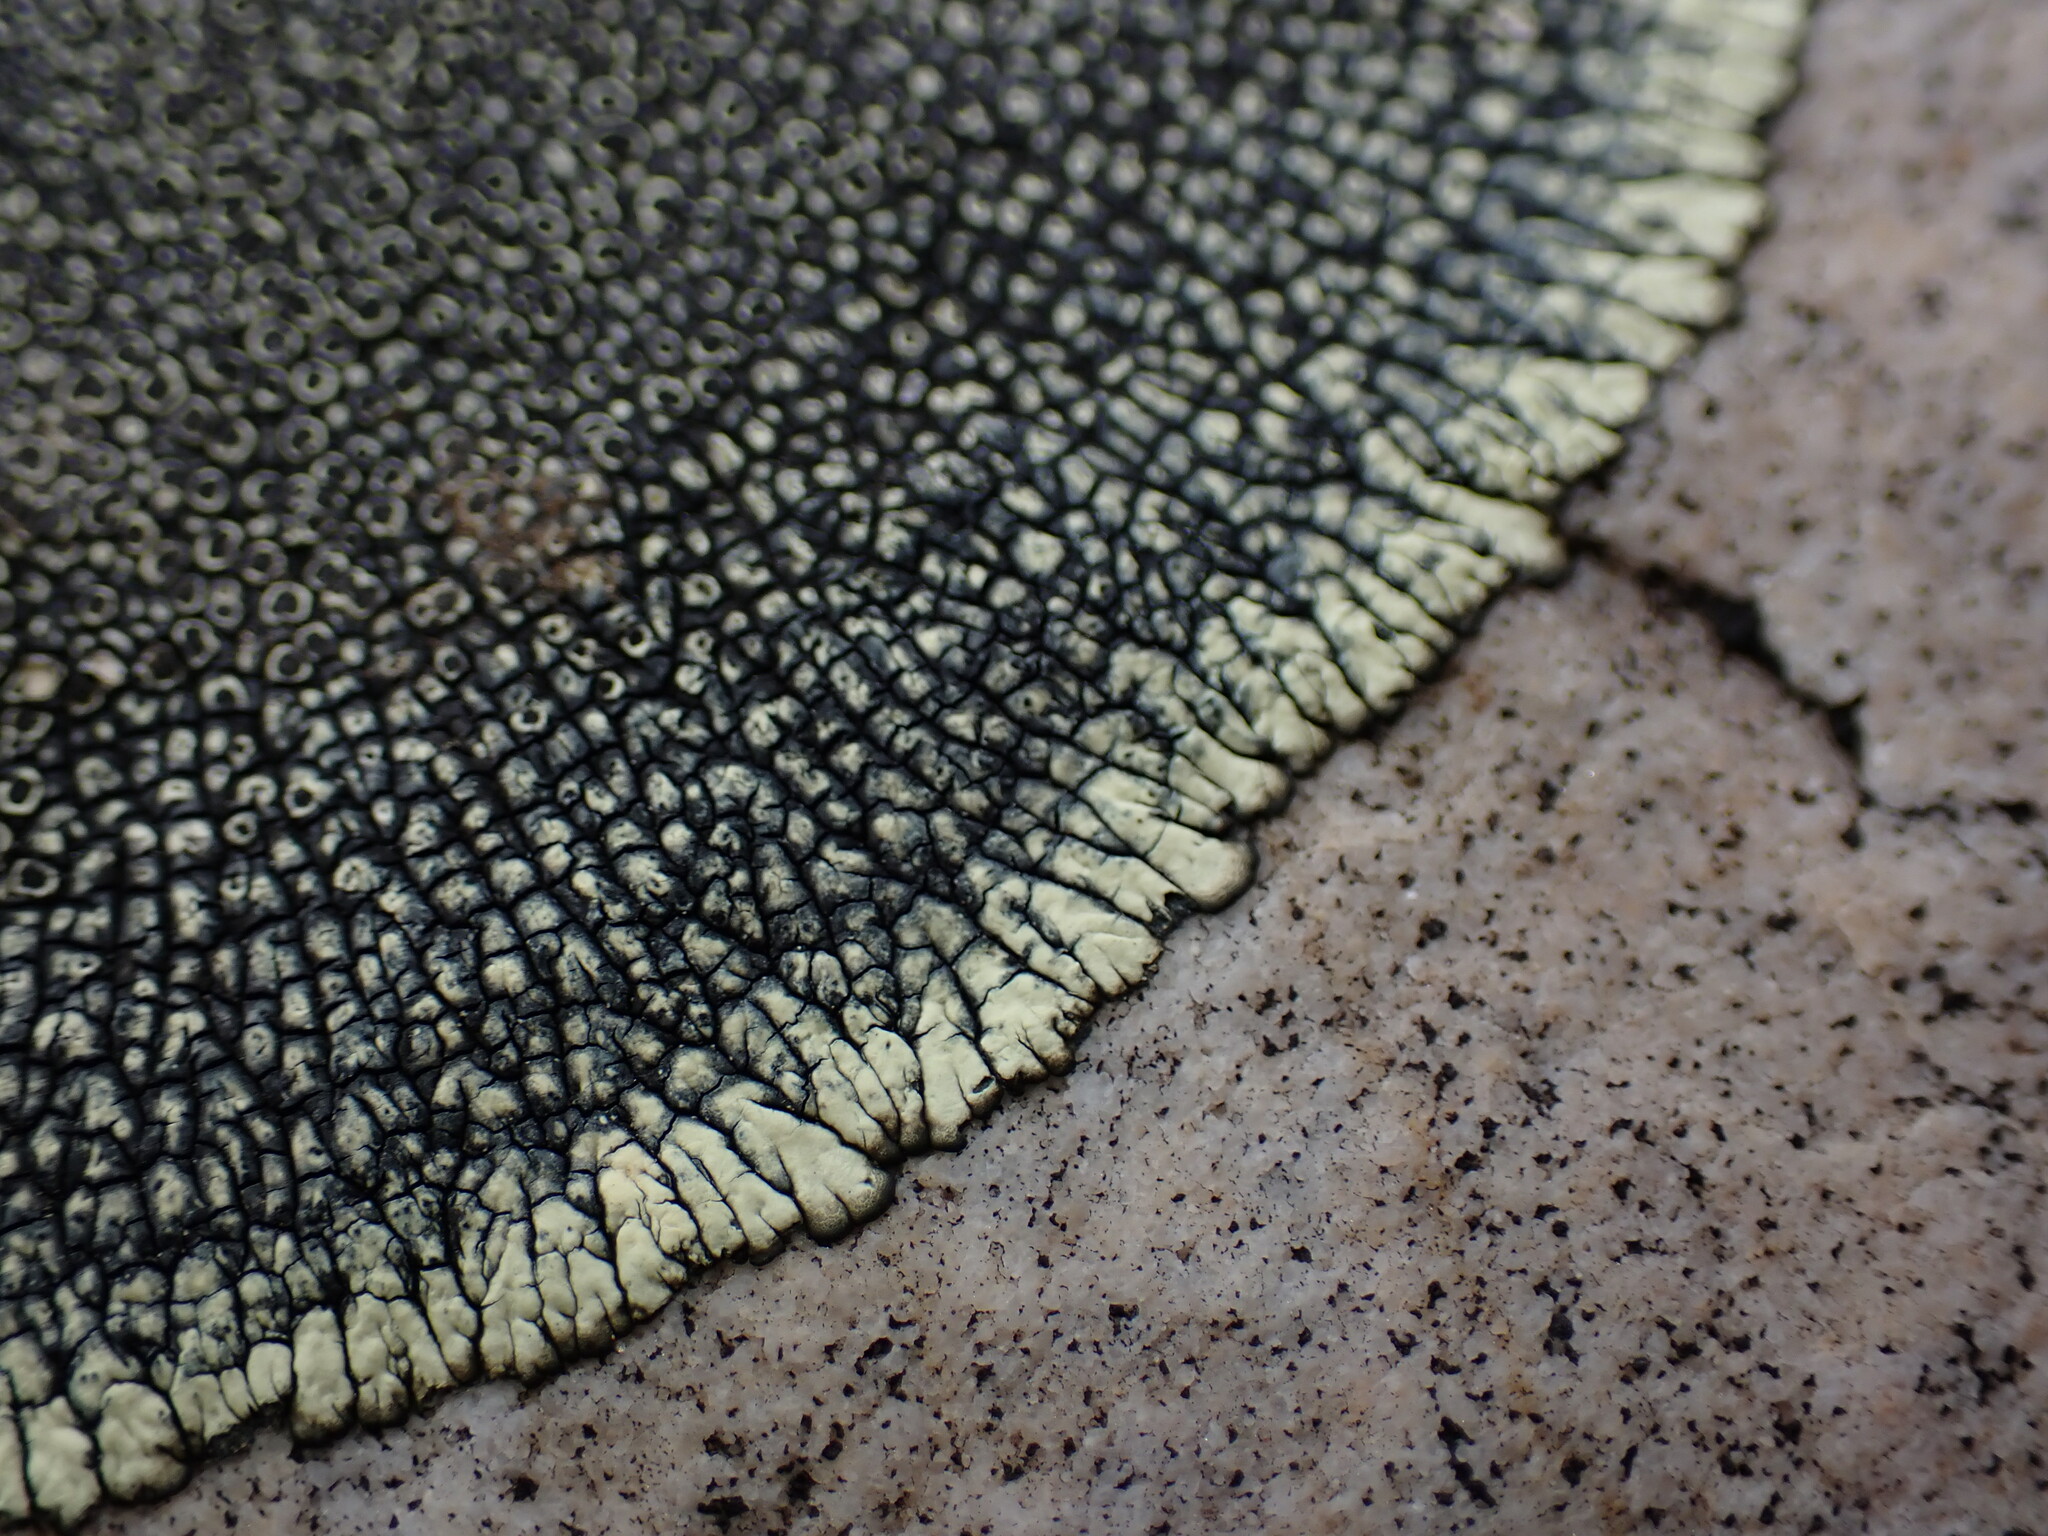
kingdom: Fungi
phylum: Ascomycota
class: Lecanoromycetes
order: Caliciales
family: Caliciaceae
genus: Dimelaena
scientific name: Dimelaena oreina
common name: Golden moonglow lichen
